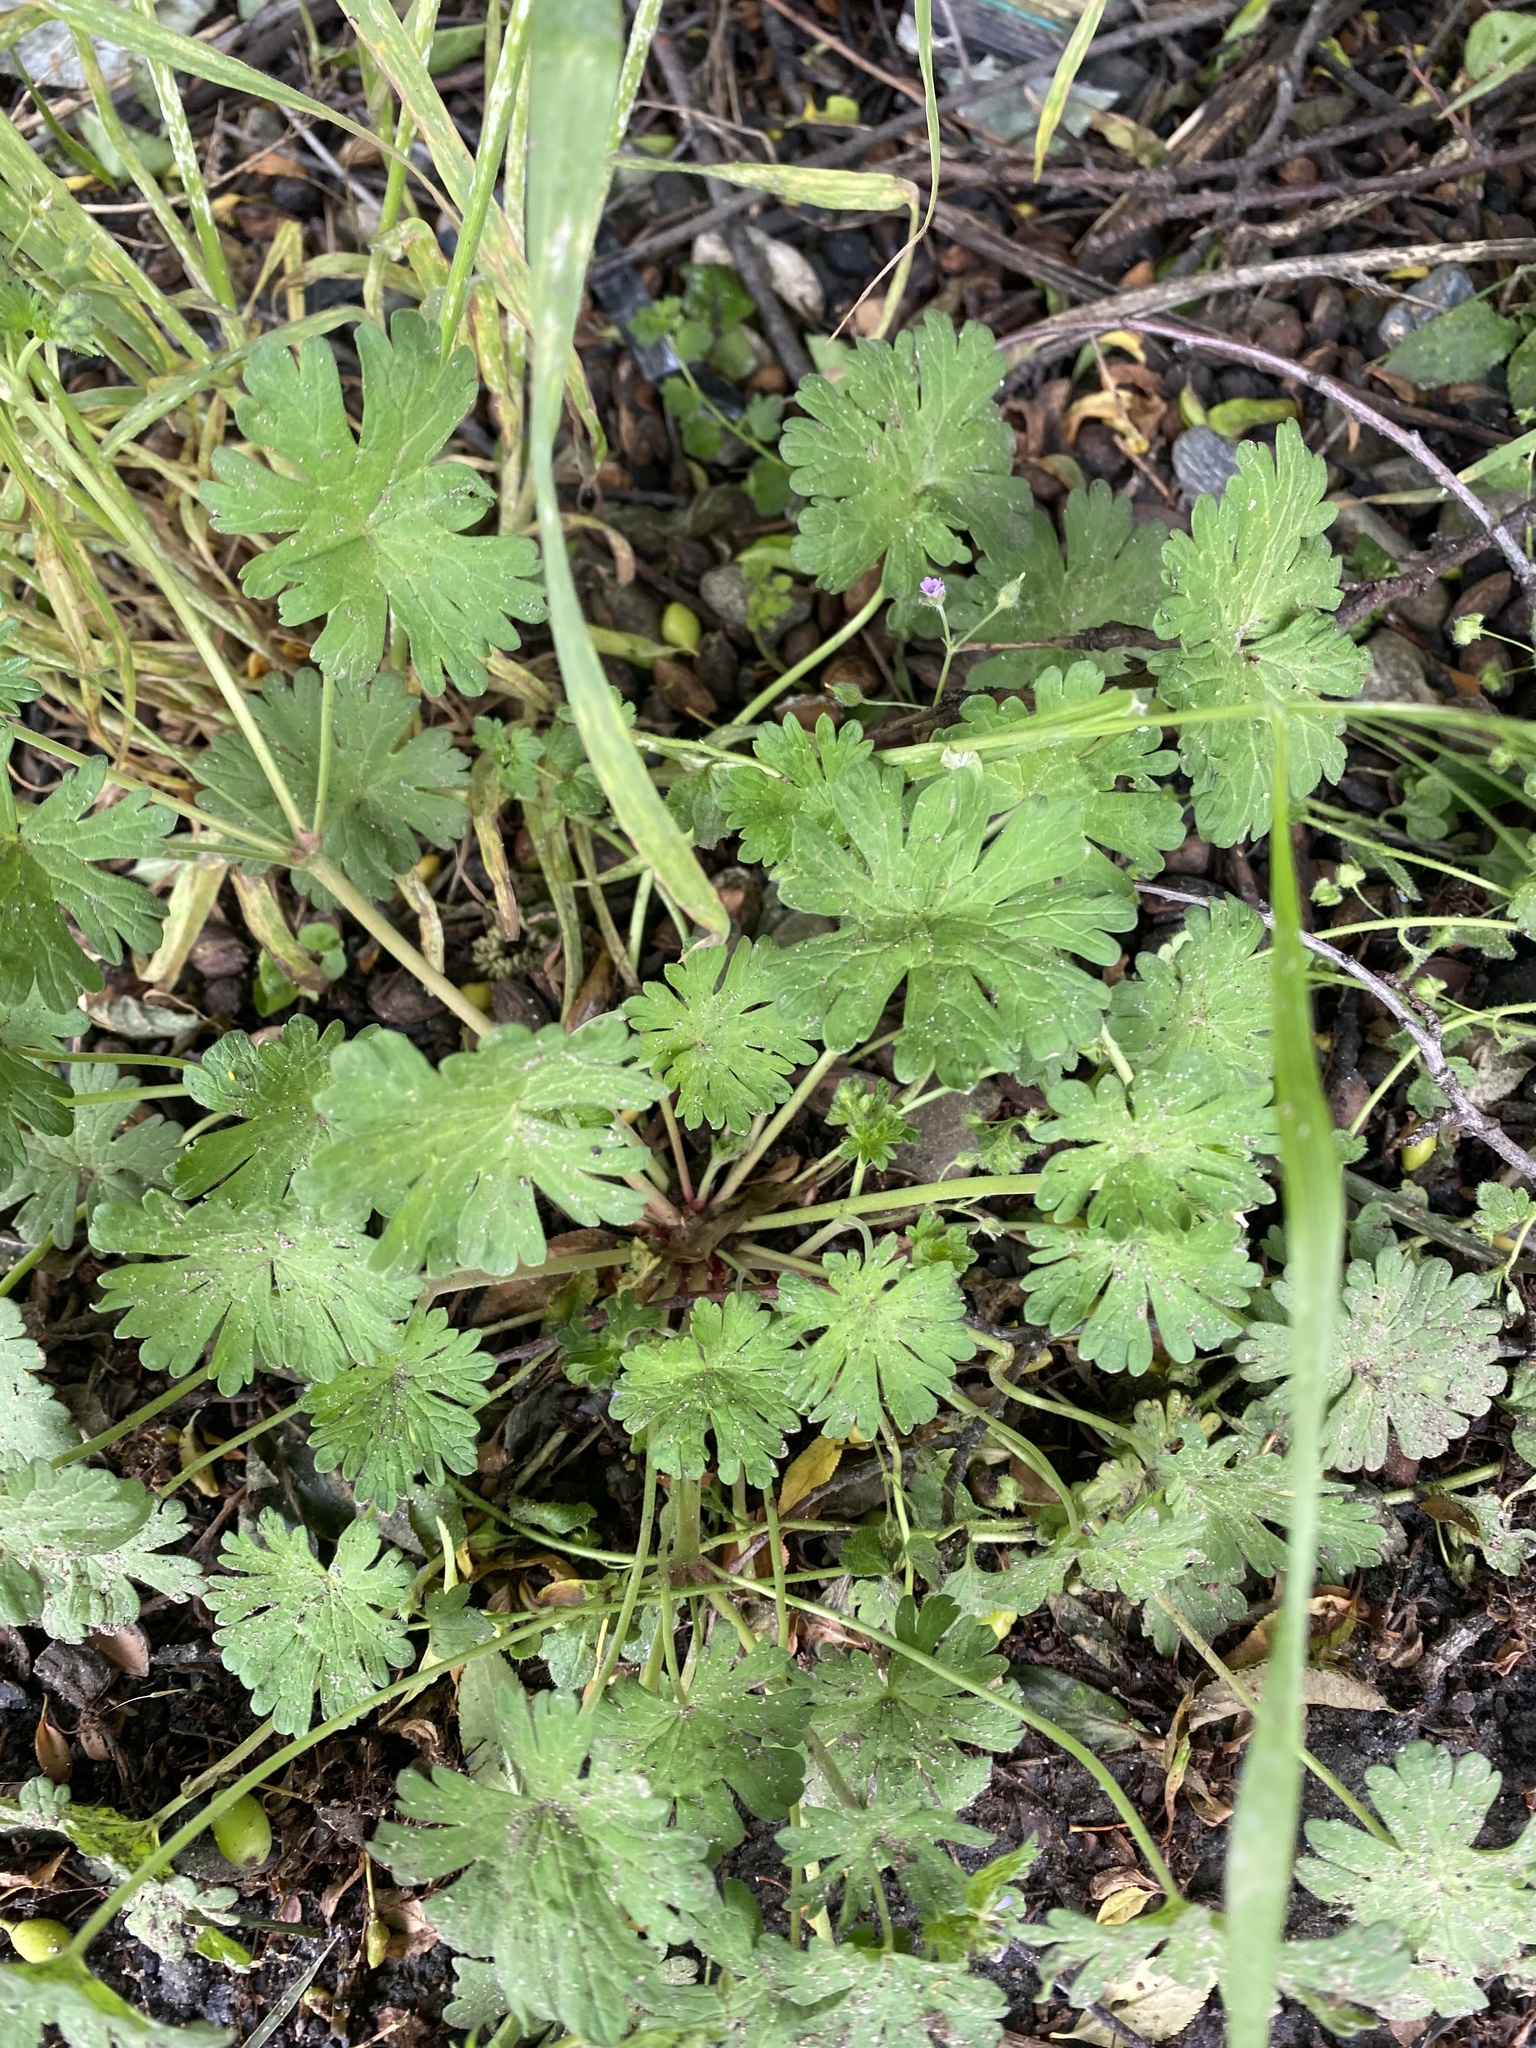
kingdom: Plantae
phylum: Tracheophyta
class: Magnoliopsida
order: Geraniales
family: Geraniaceae
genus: Geranium
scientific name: Geranium pusillum
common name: Small geranium
